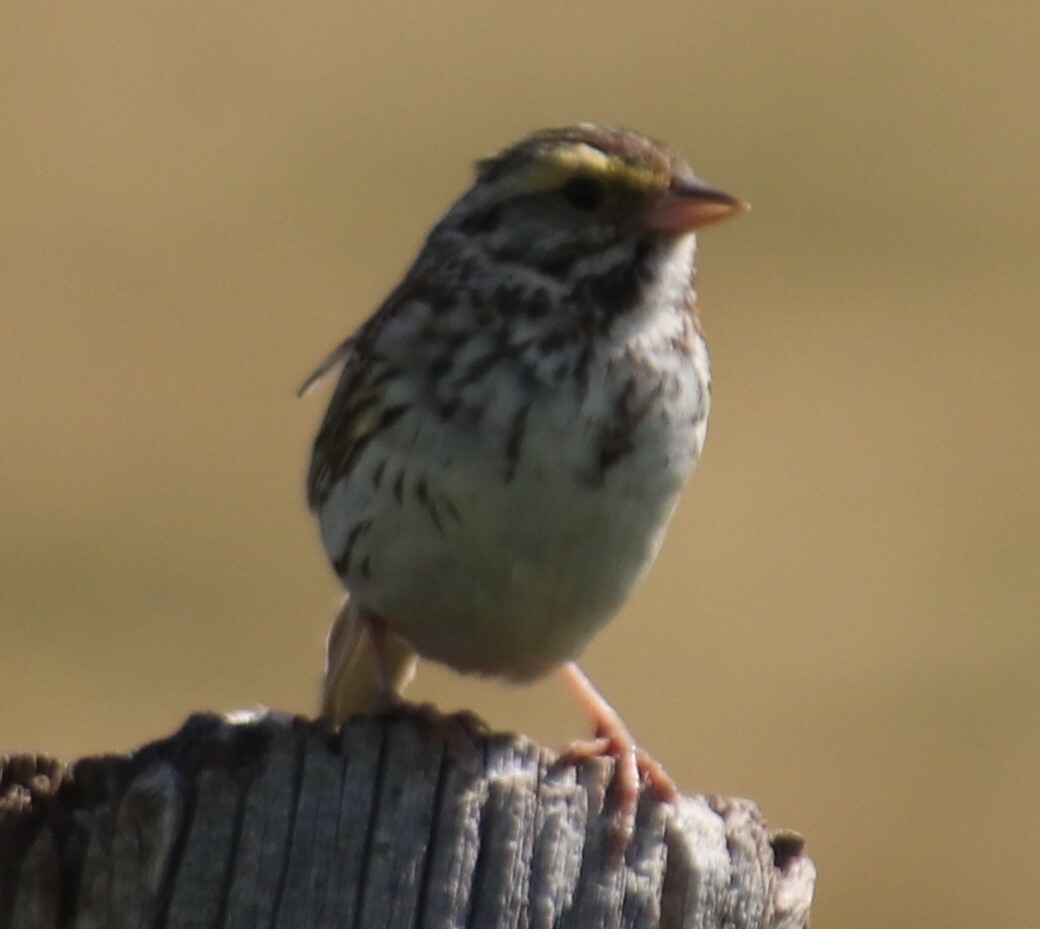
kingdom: Animalia
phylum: Chordata
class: Aves
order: Passeriformes
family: Passerellidae
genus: Passerculus
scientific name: Passerculus sandwichensis
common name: Savannah sparrow
